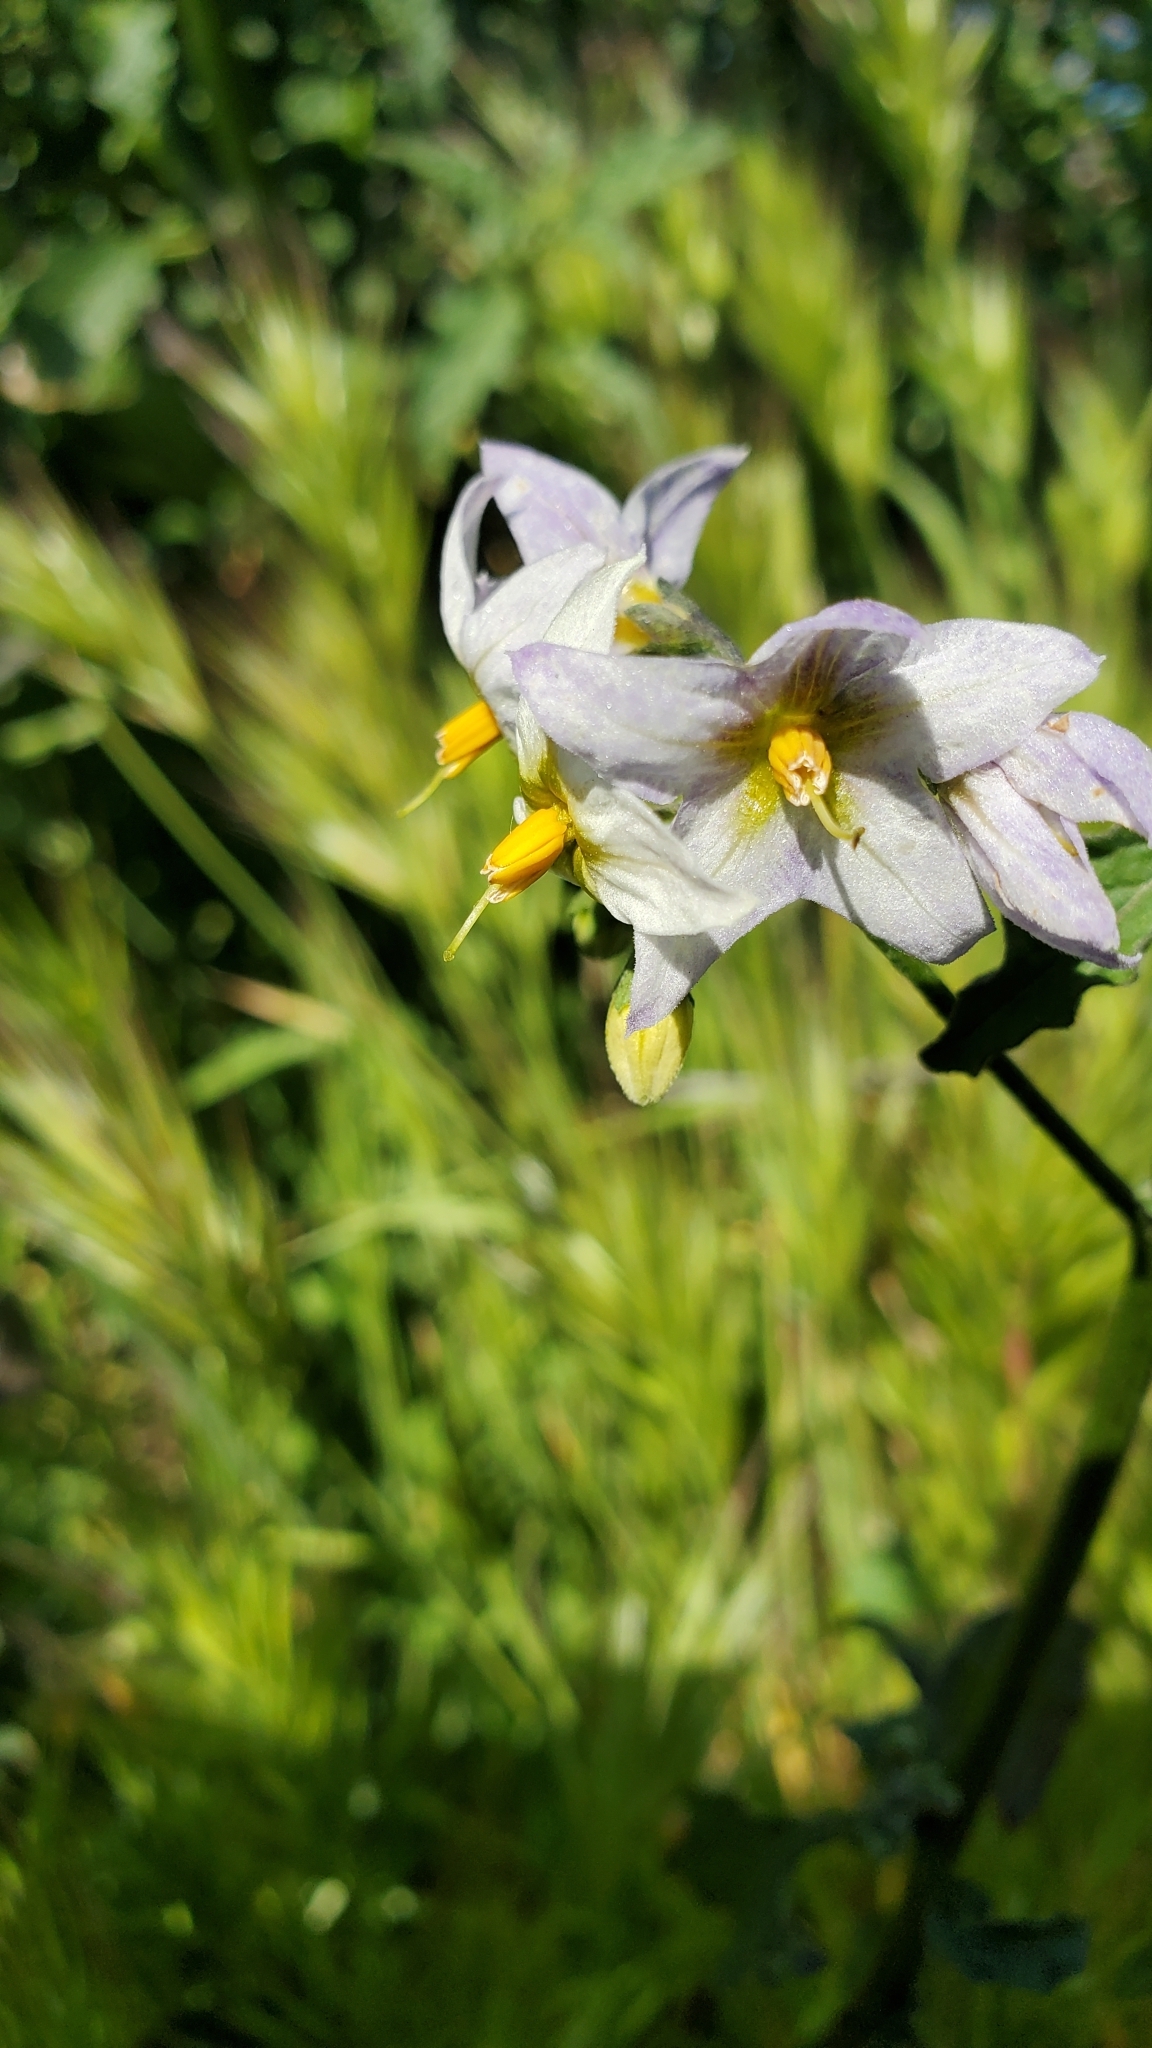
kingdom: Plantae
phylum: Tracheophyta
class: Magnoliopsida
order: Solanales
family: Solanaceae
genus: Solanum
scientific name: Solanum douglasii
